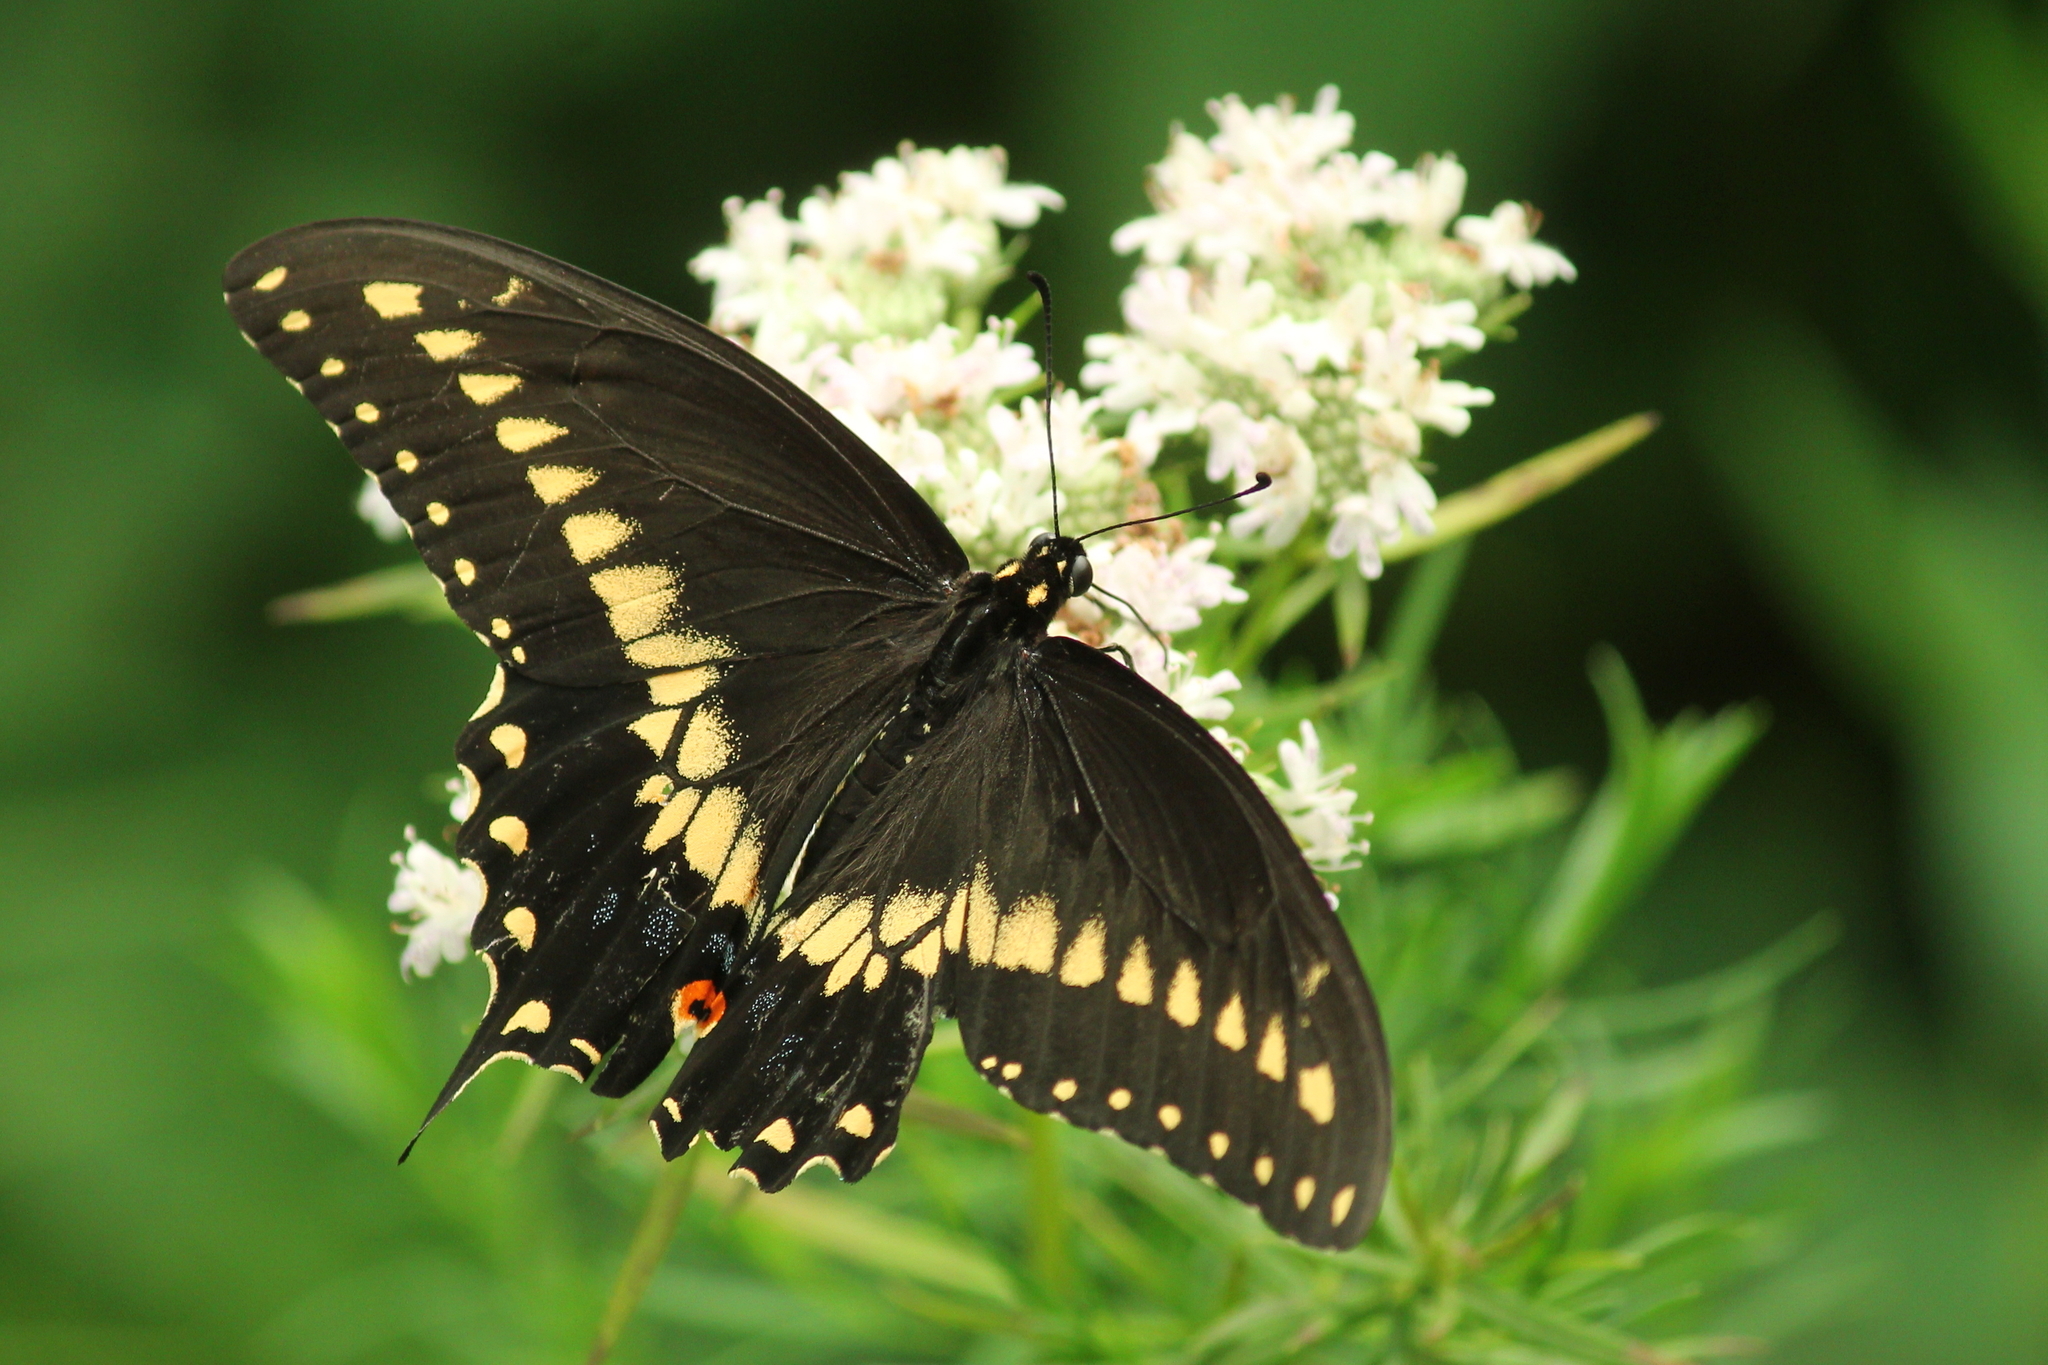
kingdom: Animalia
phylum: Arthropoda
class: Insecta
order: Lepidoptera
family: Papilionidae
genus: Papilio
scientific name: Papilio polyxenes
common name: Black swallowtail
